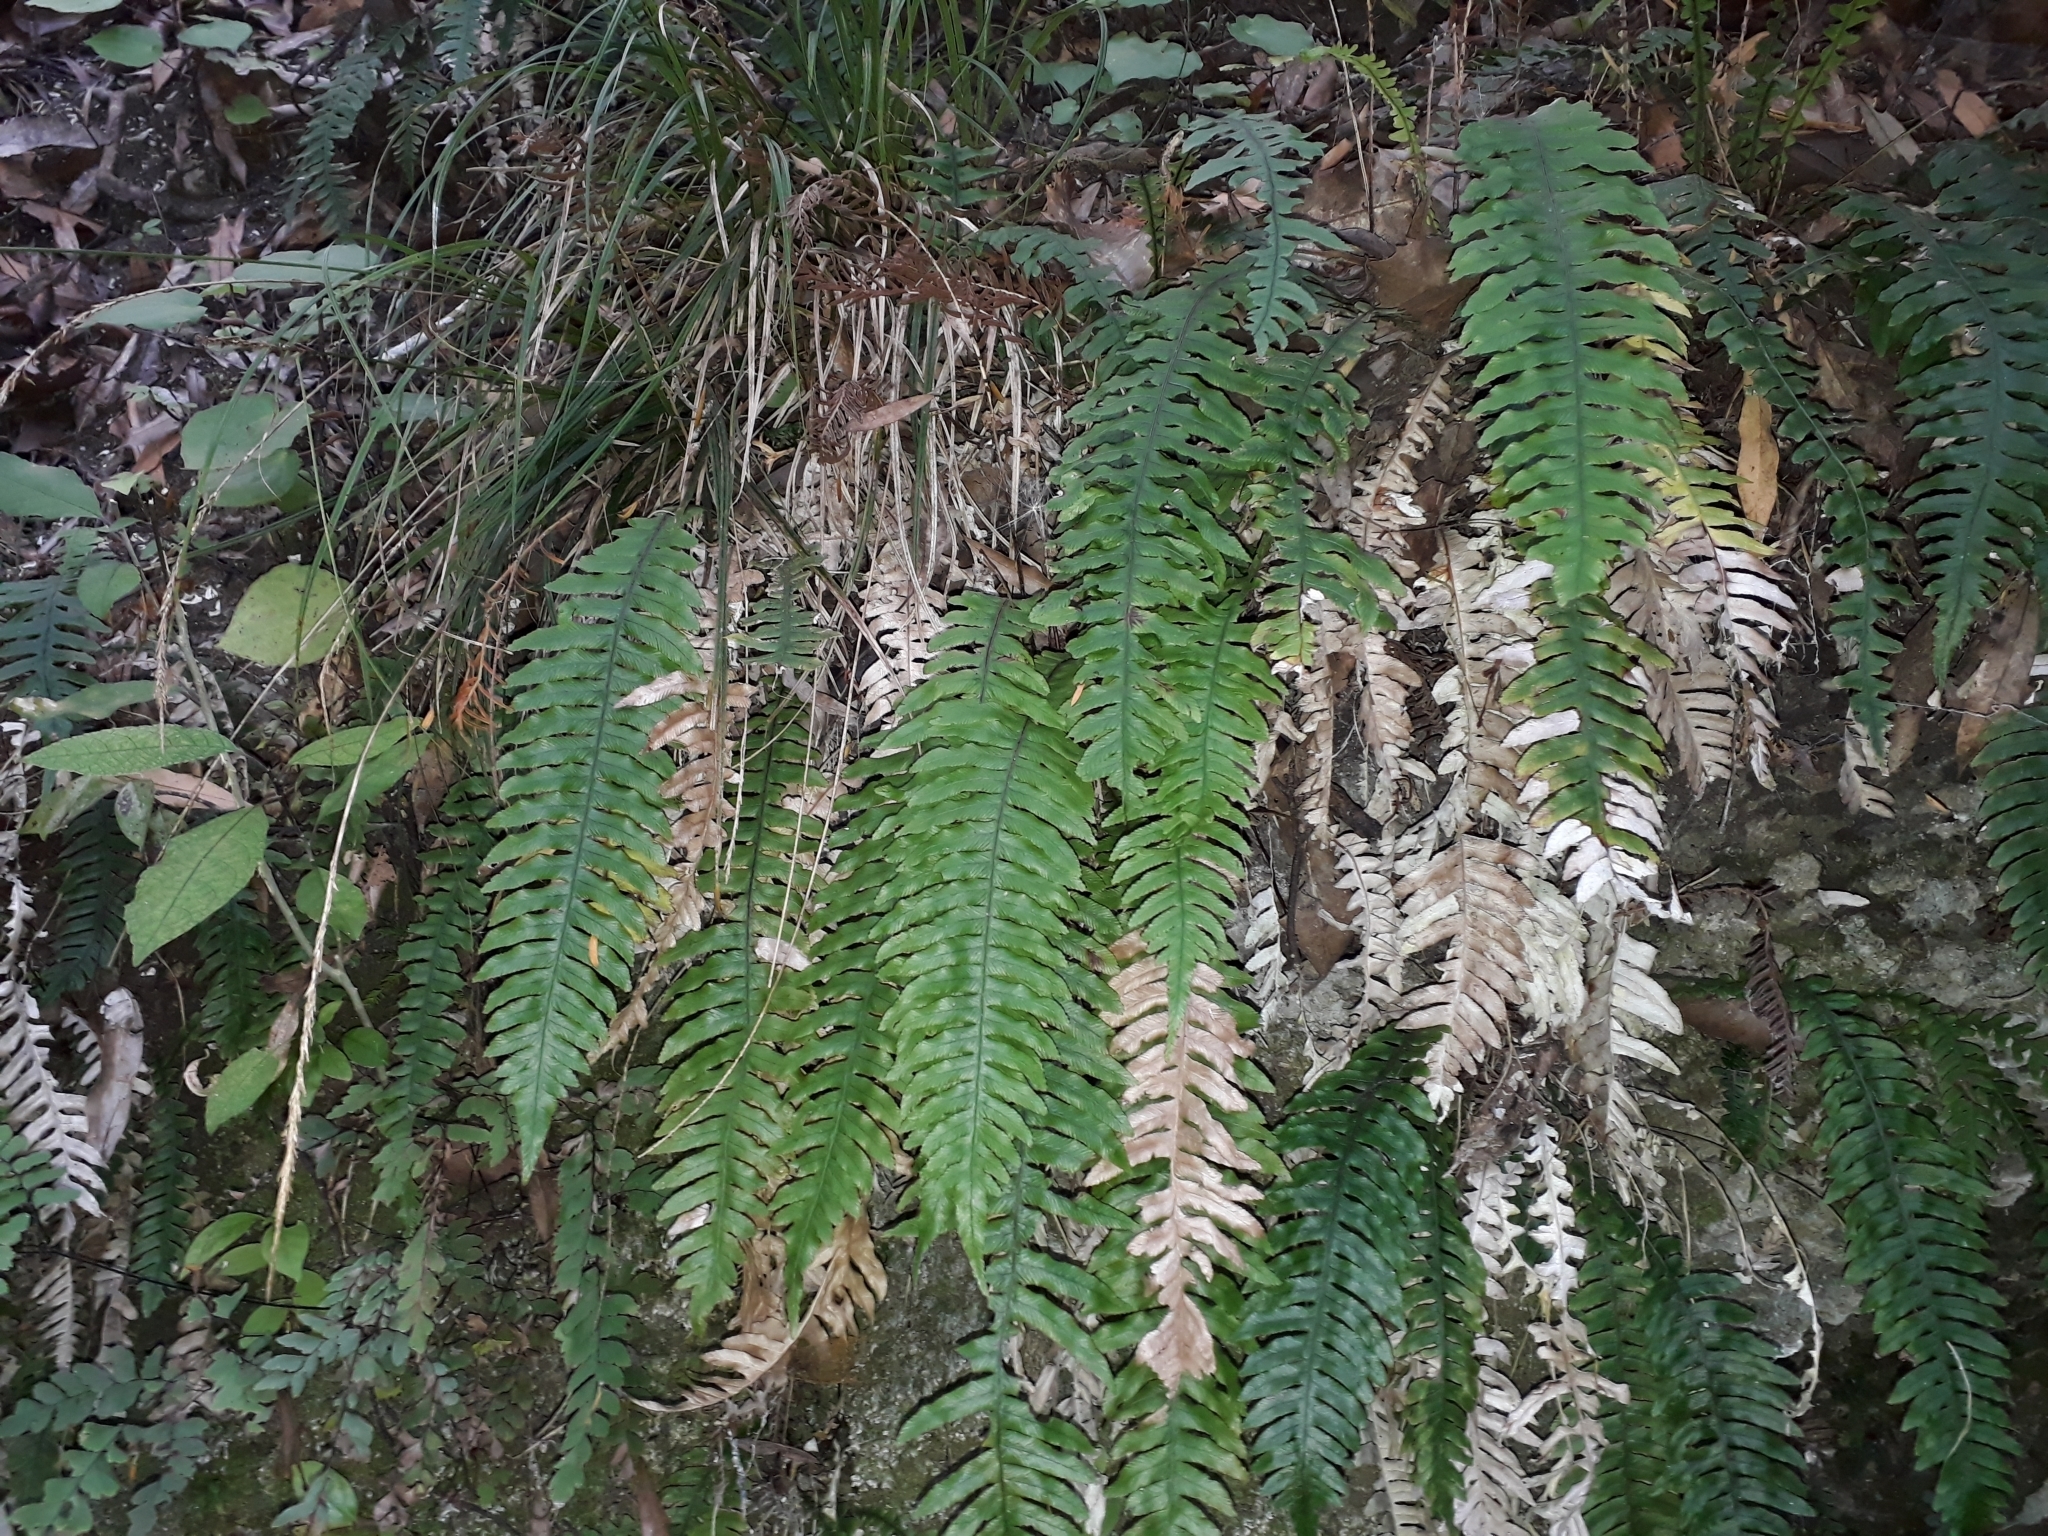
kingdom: Plantae
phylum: Tracheophyta
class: Polypodiopsida
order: Polypodiales
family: Blechnaceae
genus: Austroblechnum
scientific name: Austroblechnum lanceolatum
